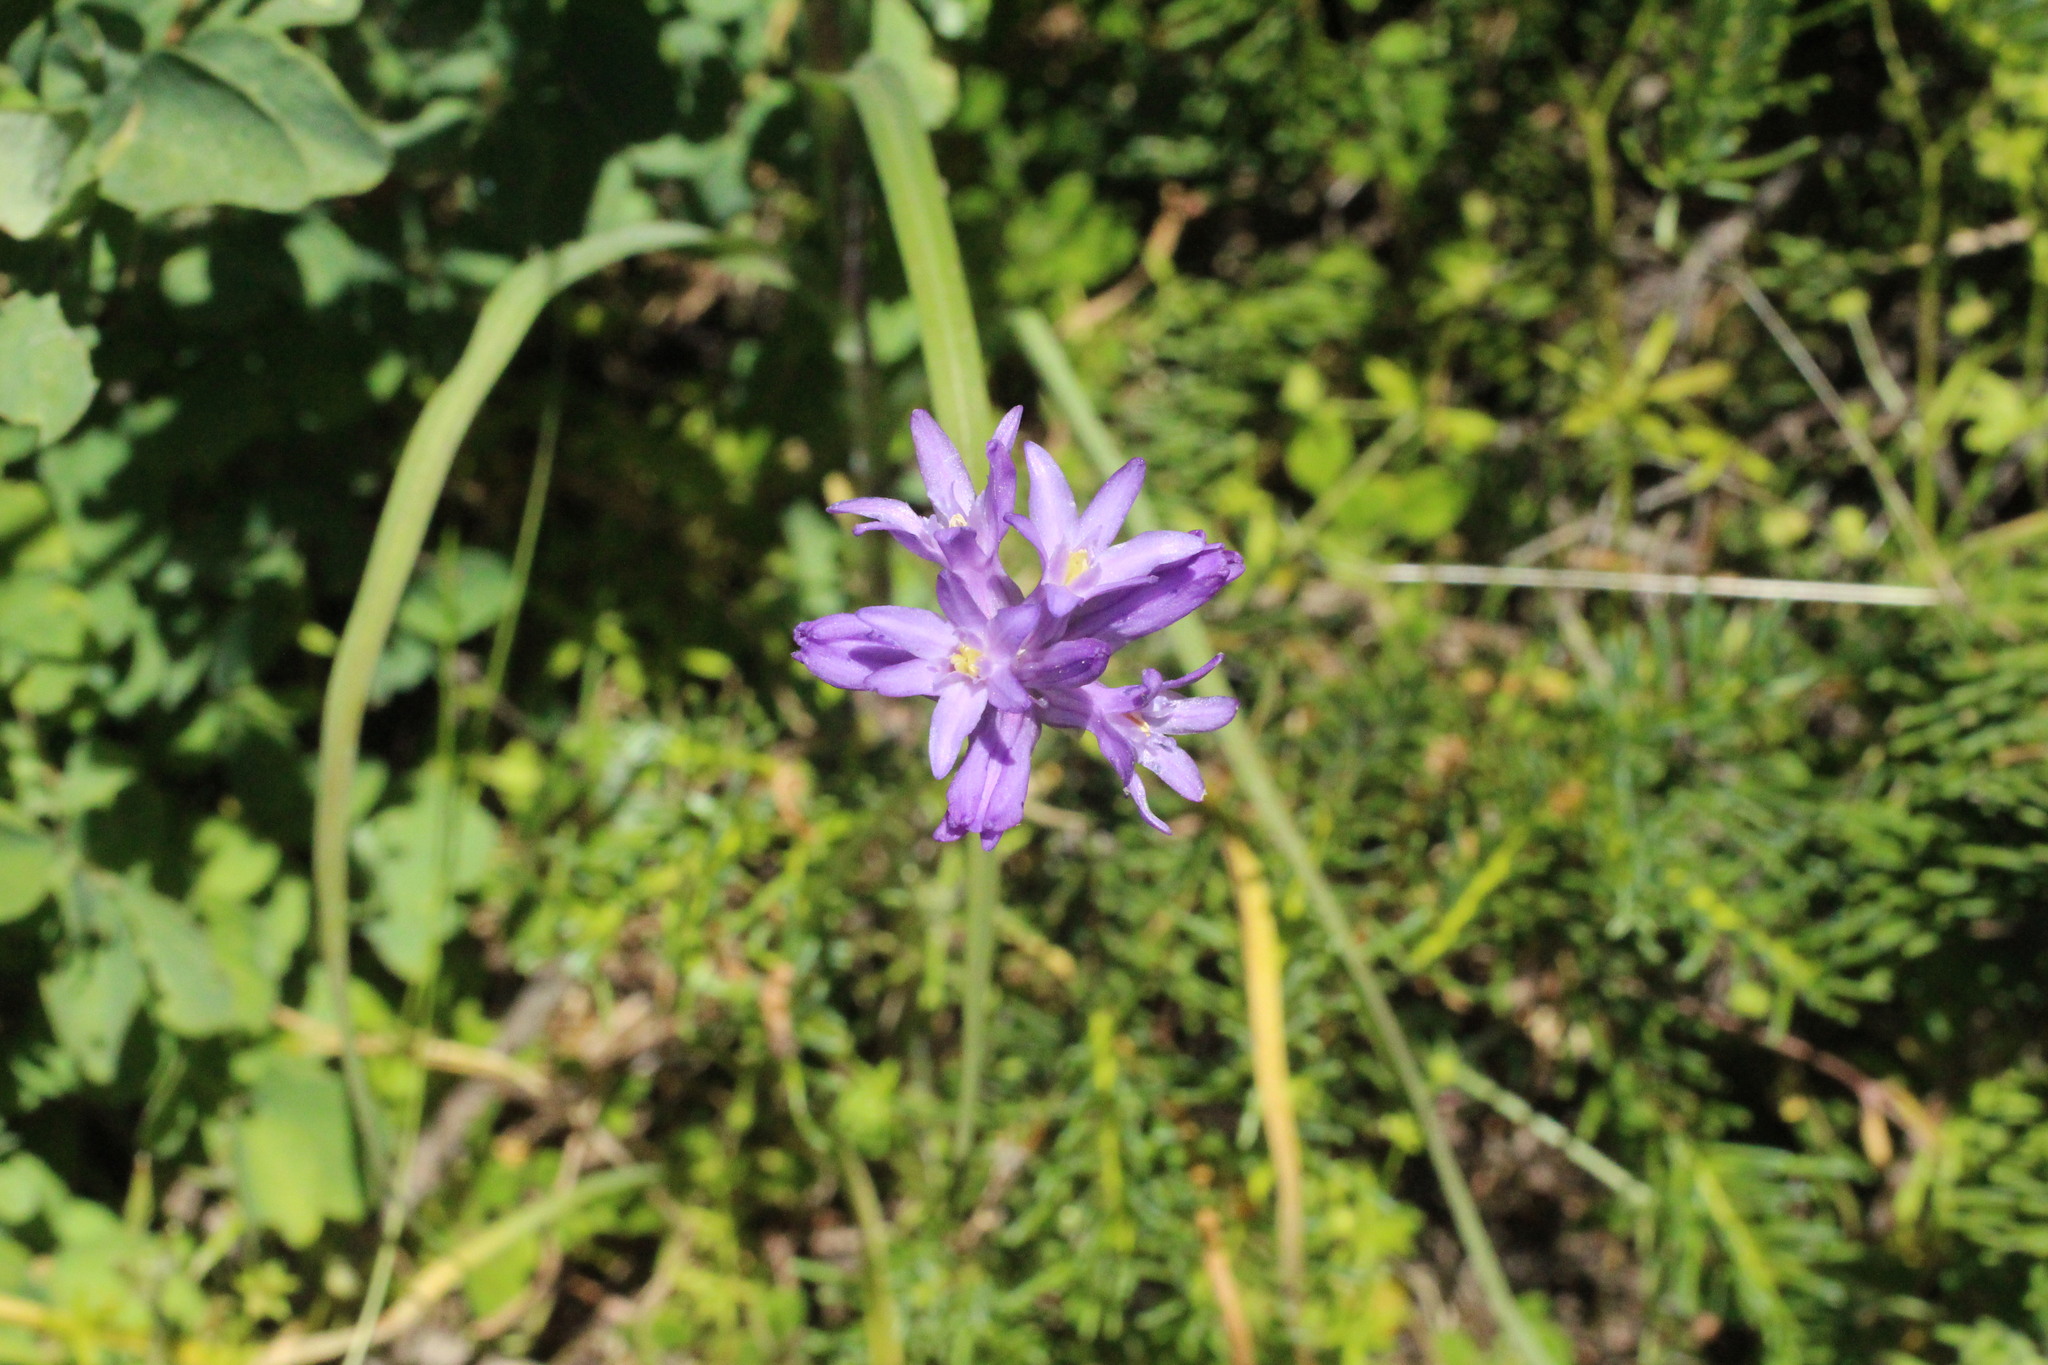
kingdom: Plantae
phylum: Tracheophyta
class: Liliopsida
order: Asparagales
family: Asparagaceae
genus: Dichelostemma
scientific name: Dichelostemma congestum
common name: Fork-tooth ookow
